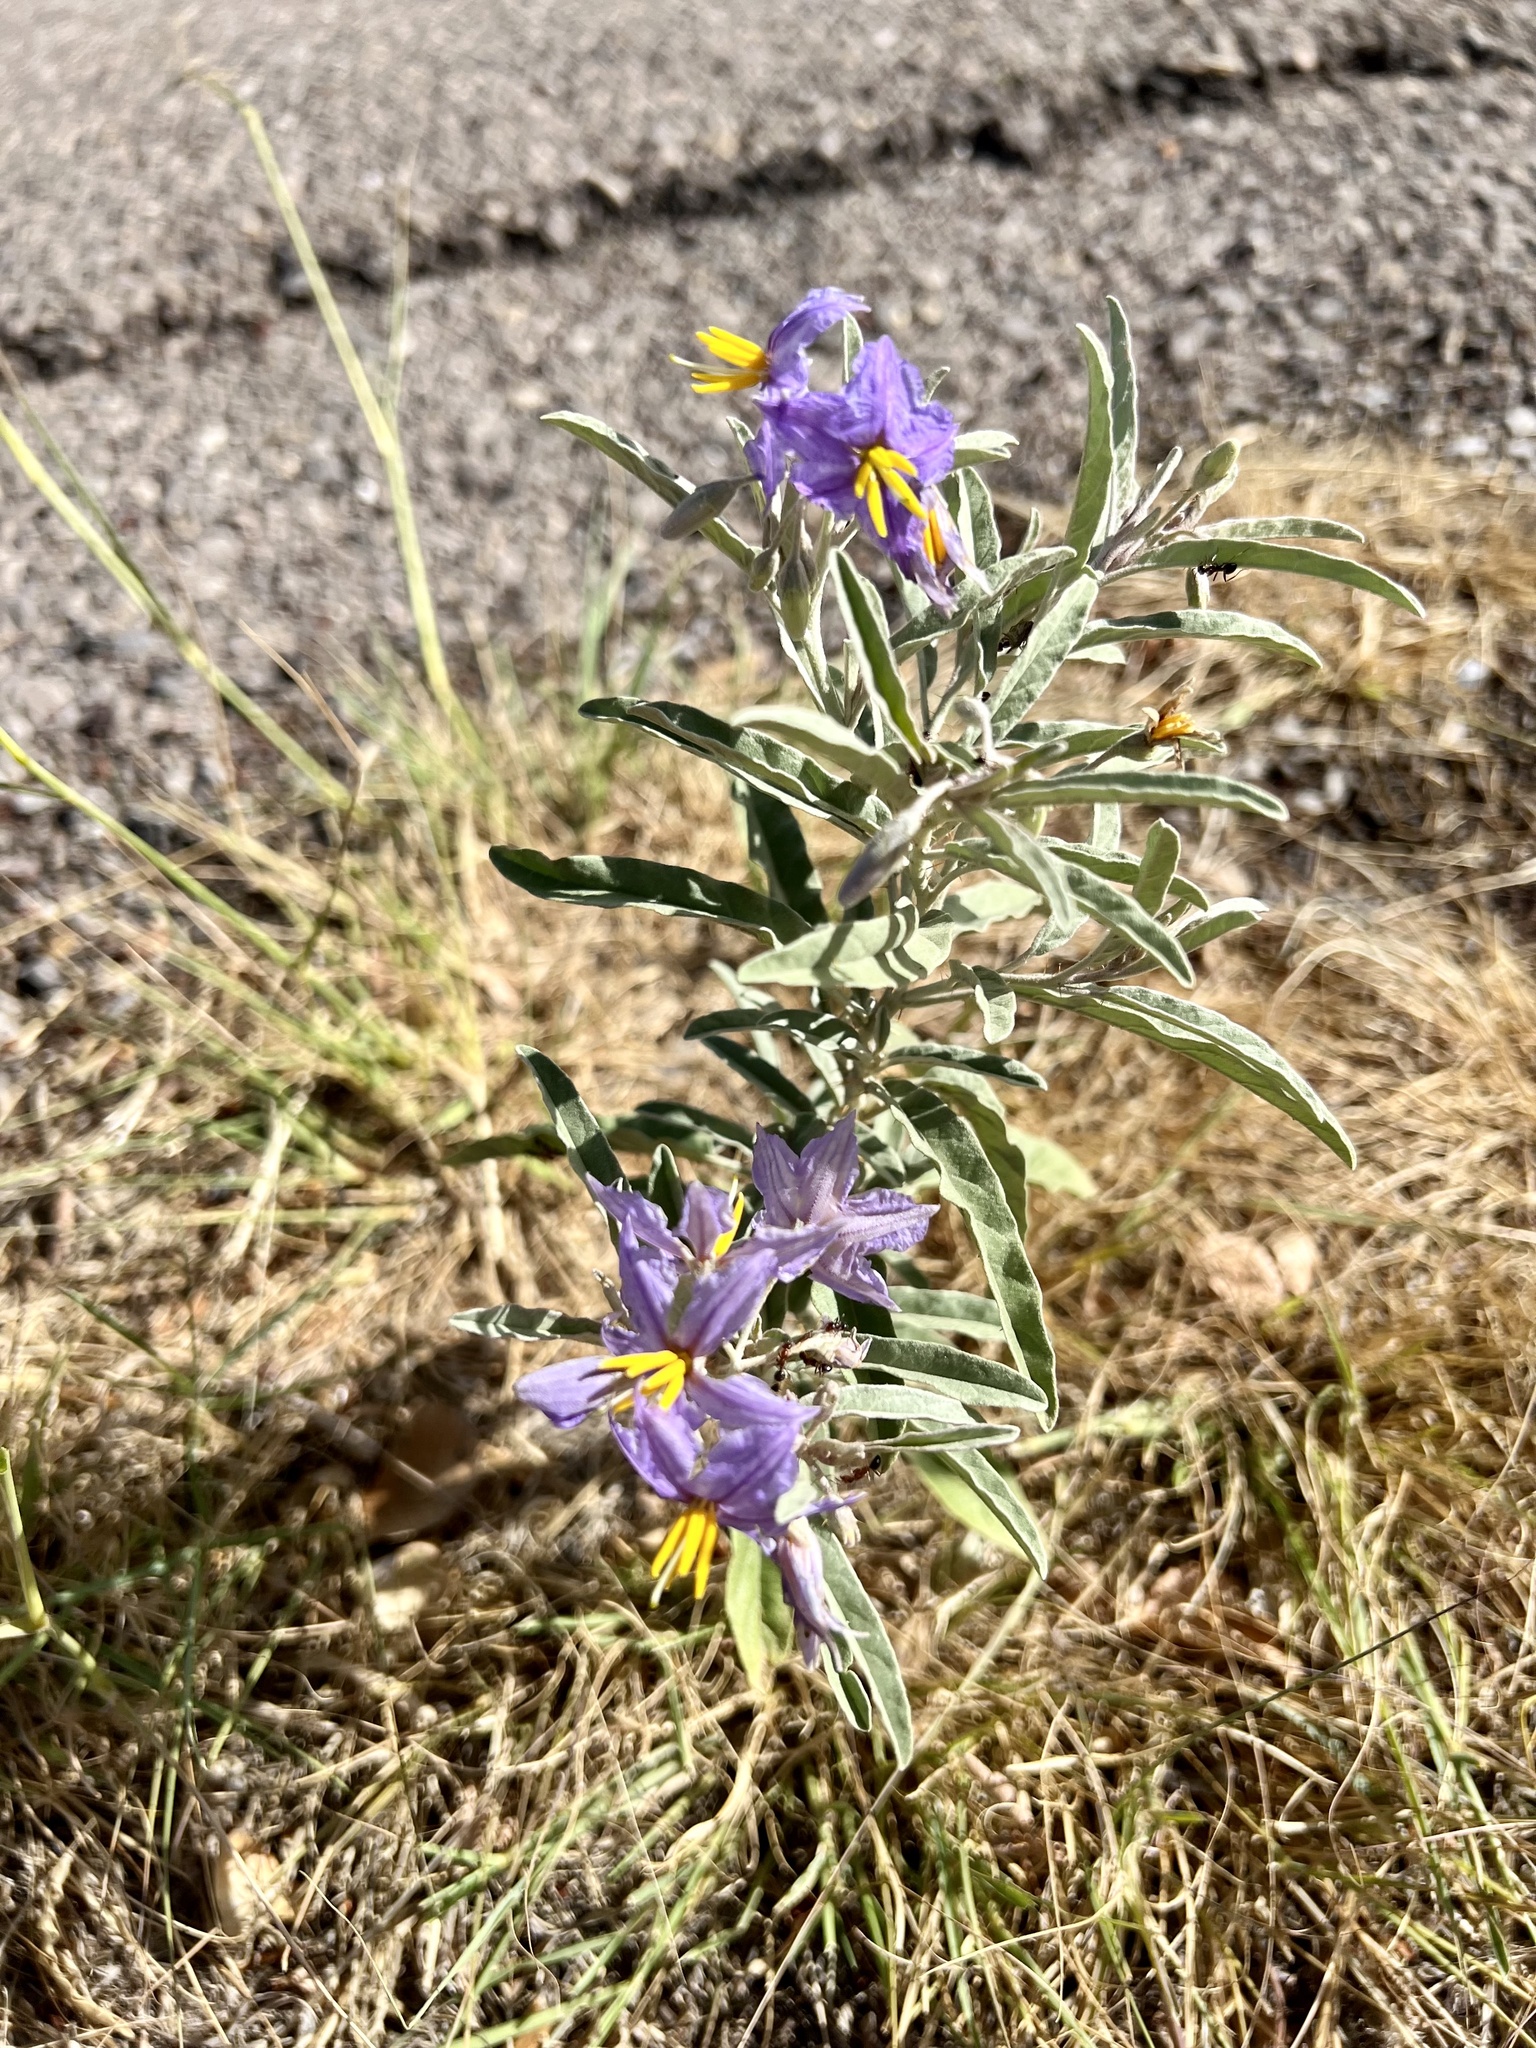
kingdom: Plantae
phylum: Tracheophyta
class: Magnoliopsida
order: Solanales
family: Solanaceae
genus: Solanum
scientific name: Solanum elaeagnifolium
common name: Silverleaf nightshade
